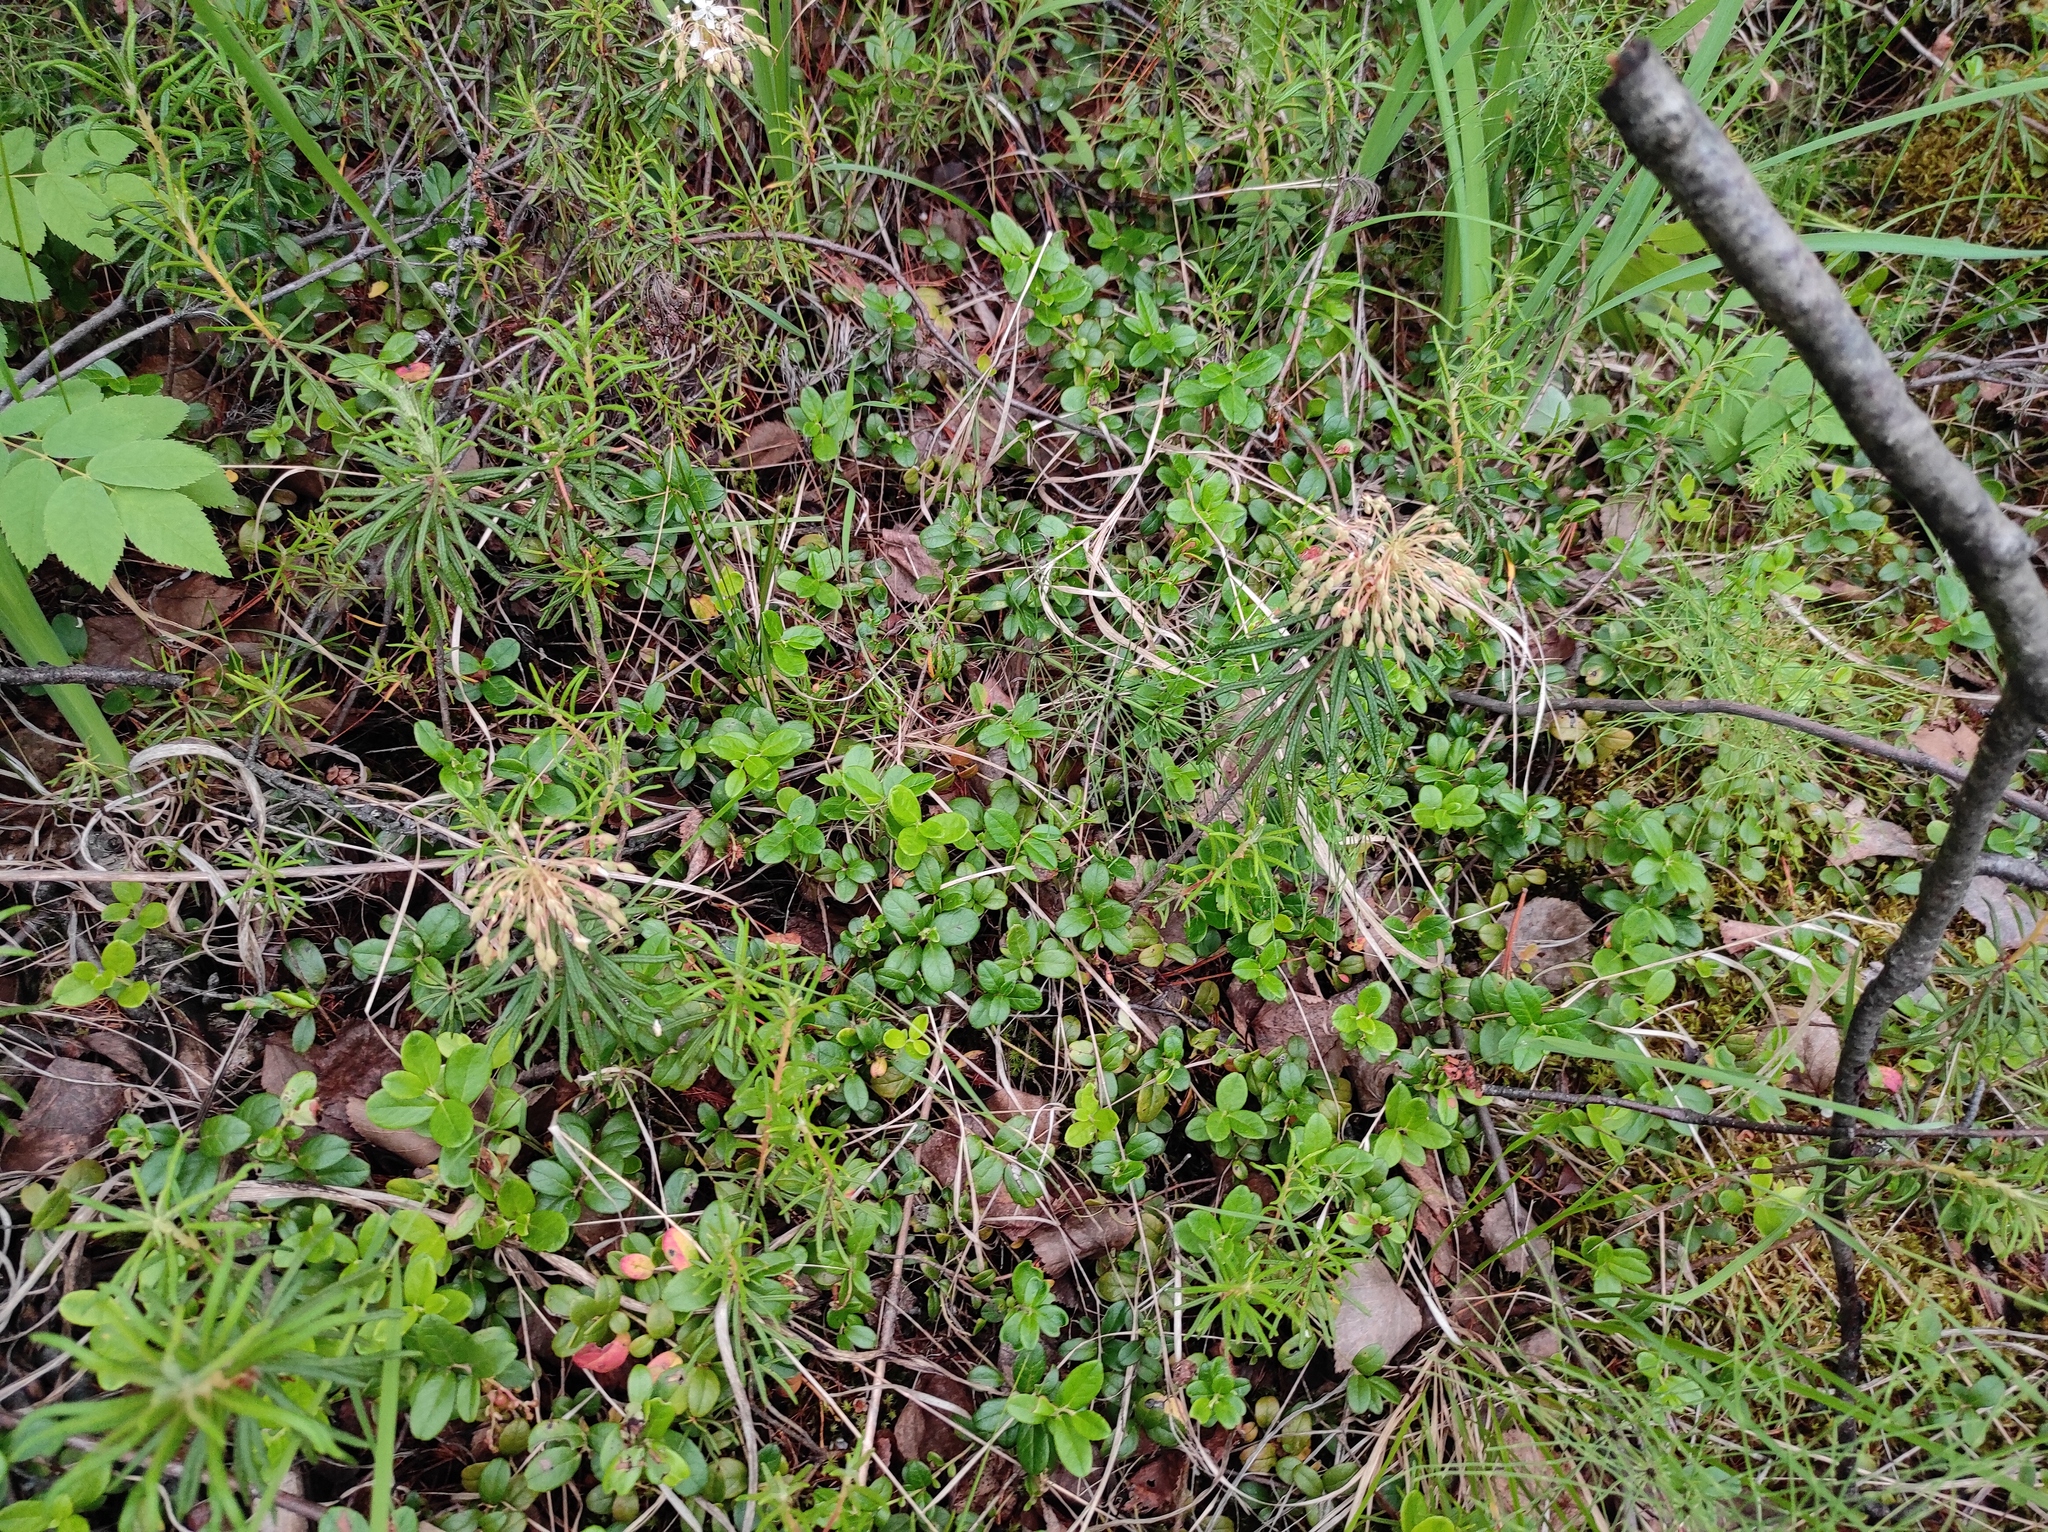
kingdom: Plantae
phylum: Tracheophyta
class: Magnoliopsida
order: Ericales
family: Ericaceae
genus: Vaccinium
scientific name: Vaccinium vitis-idaea
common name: Cowberry
